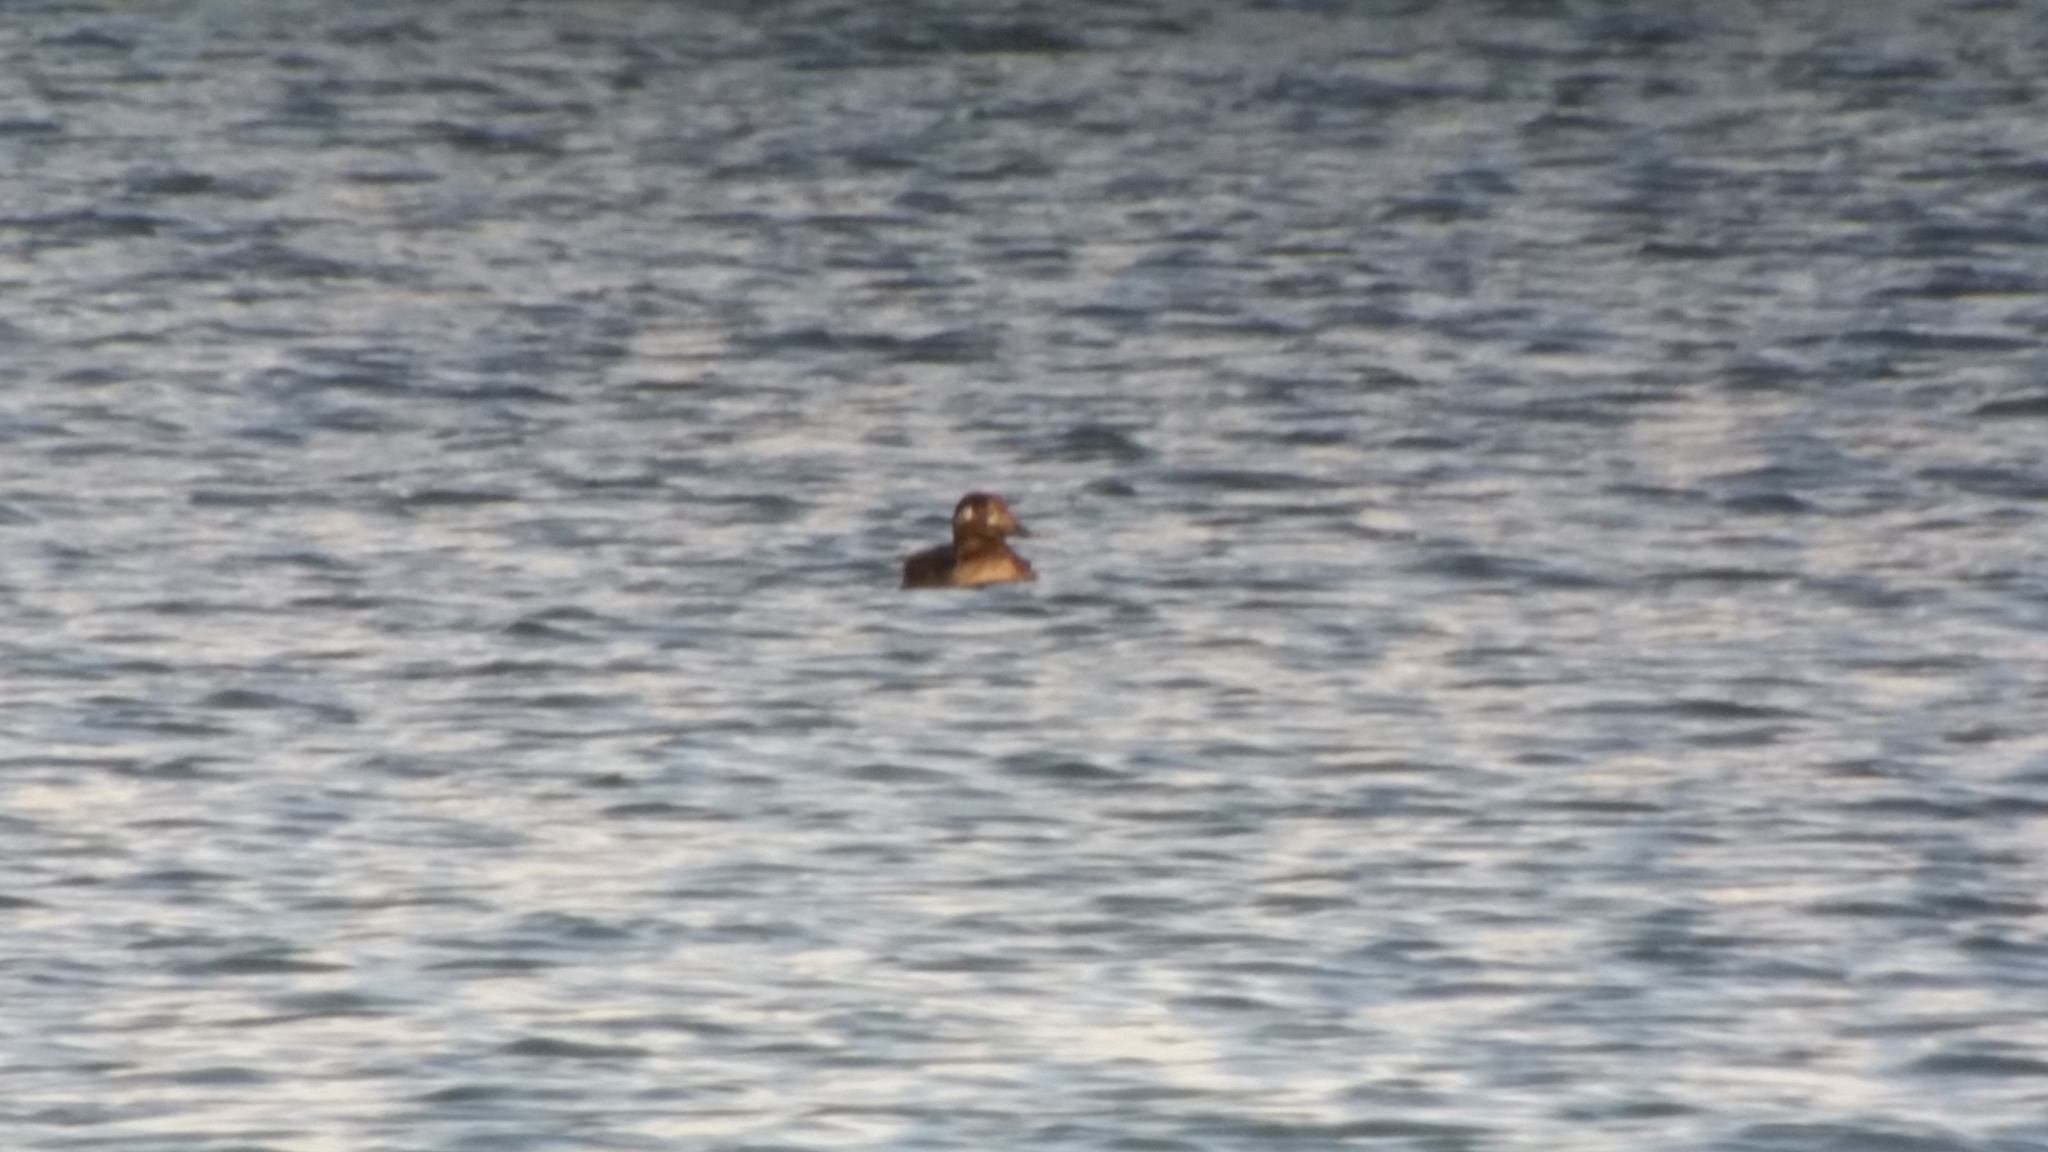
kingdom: Animalia
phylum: Chordata
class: Aves
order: Anseriformes
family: Anatidae
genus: Melanitta
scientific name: Melanitta deglandi
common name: White-winged scoter
